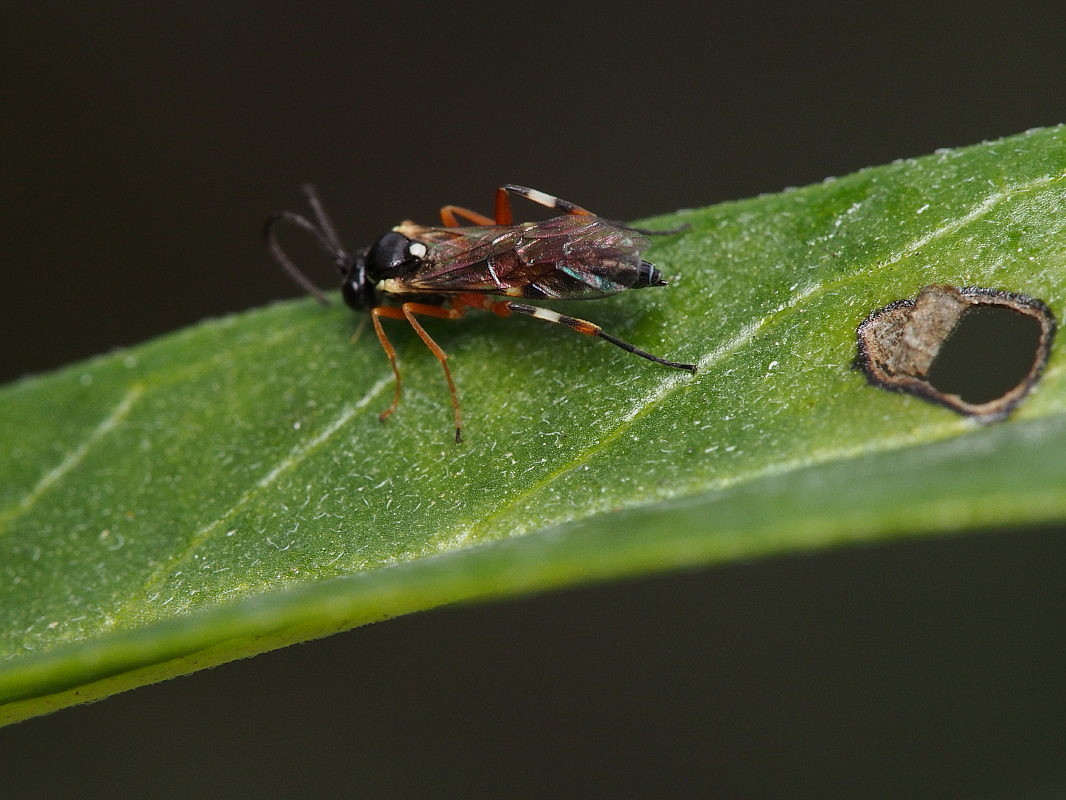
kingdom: Animalia
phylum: Arthropoda
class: Insecta
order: Hymenoptera
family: Ichneumonidae
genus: Diplazon
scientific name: Diplazon laetatorius
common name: Parasitoid wasp
